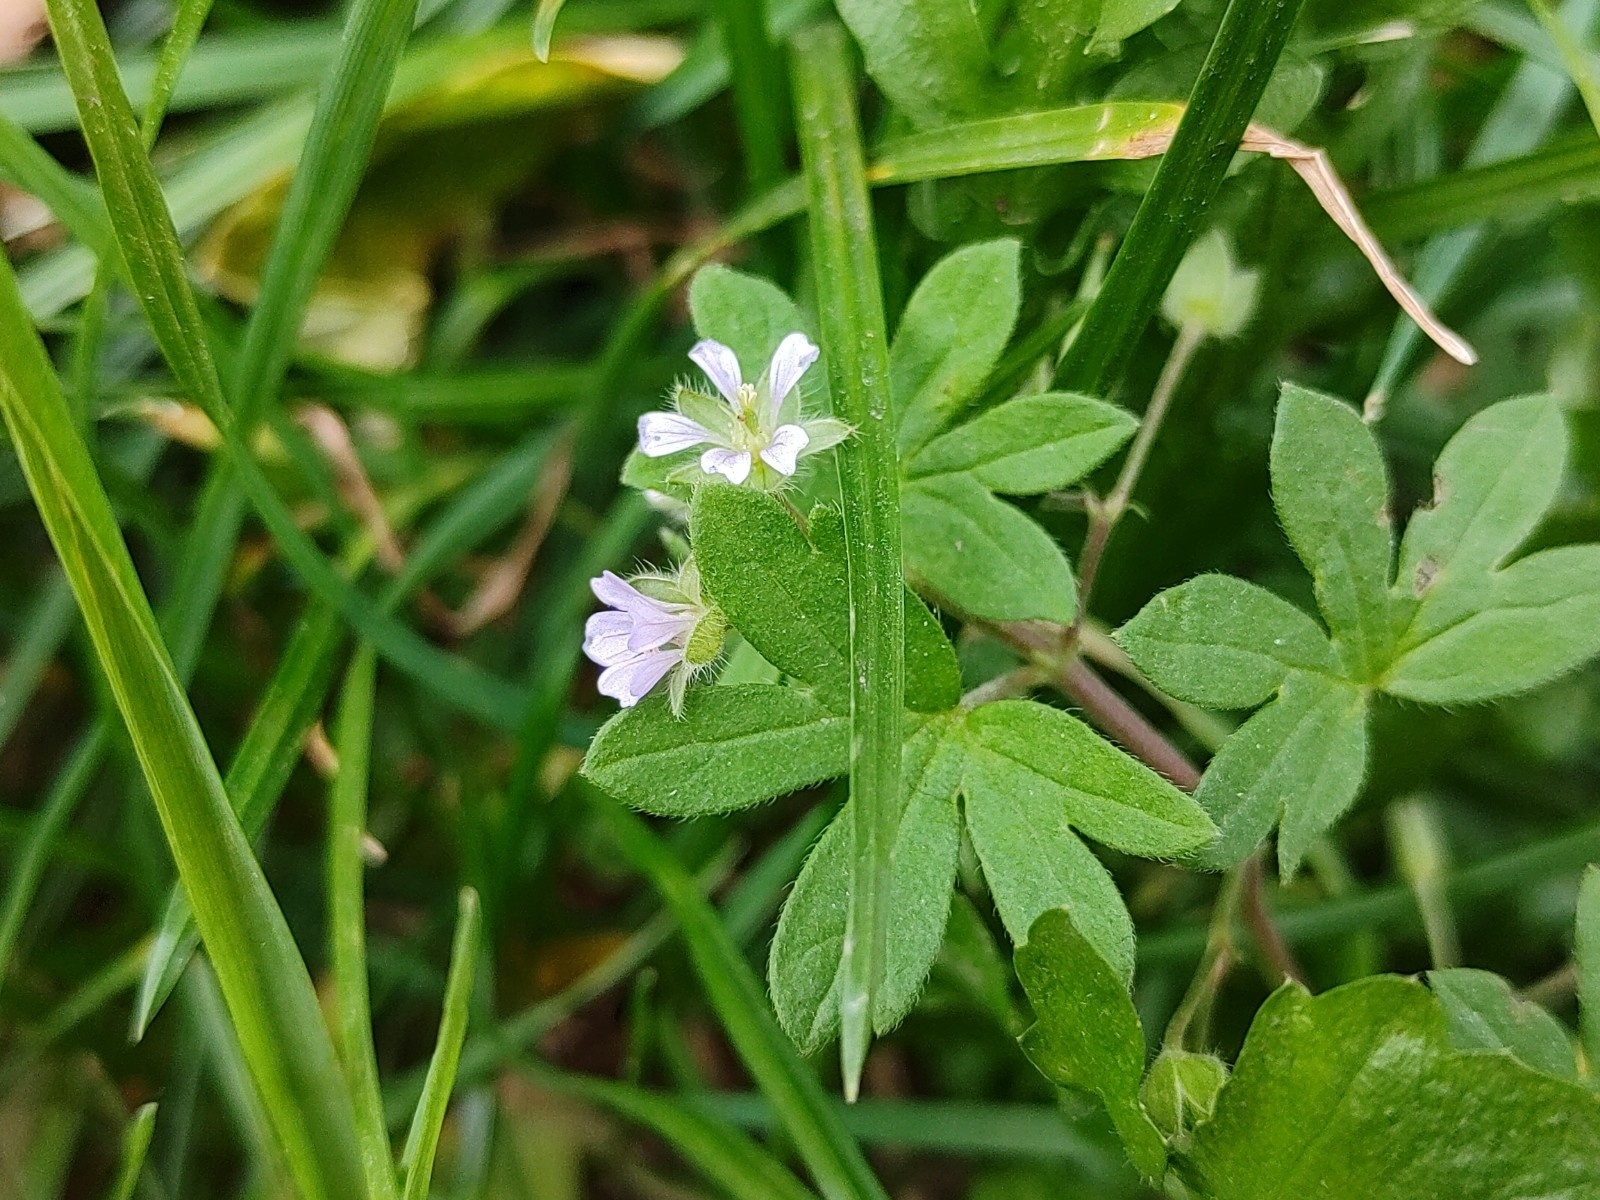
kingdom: Plantae
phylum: Tracheophyta
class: Magnoliopsida
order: Geraniales
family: Geraniaceae
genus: Geranium
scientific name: Geranium pusillum
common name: Small geranium
